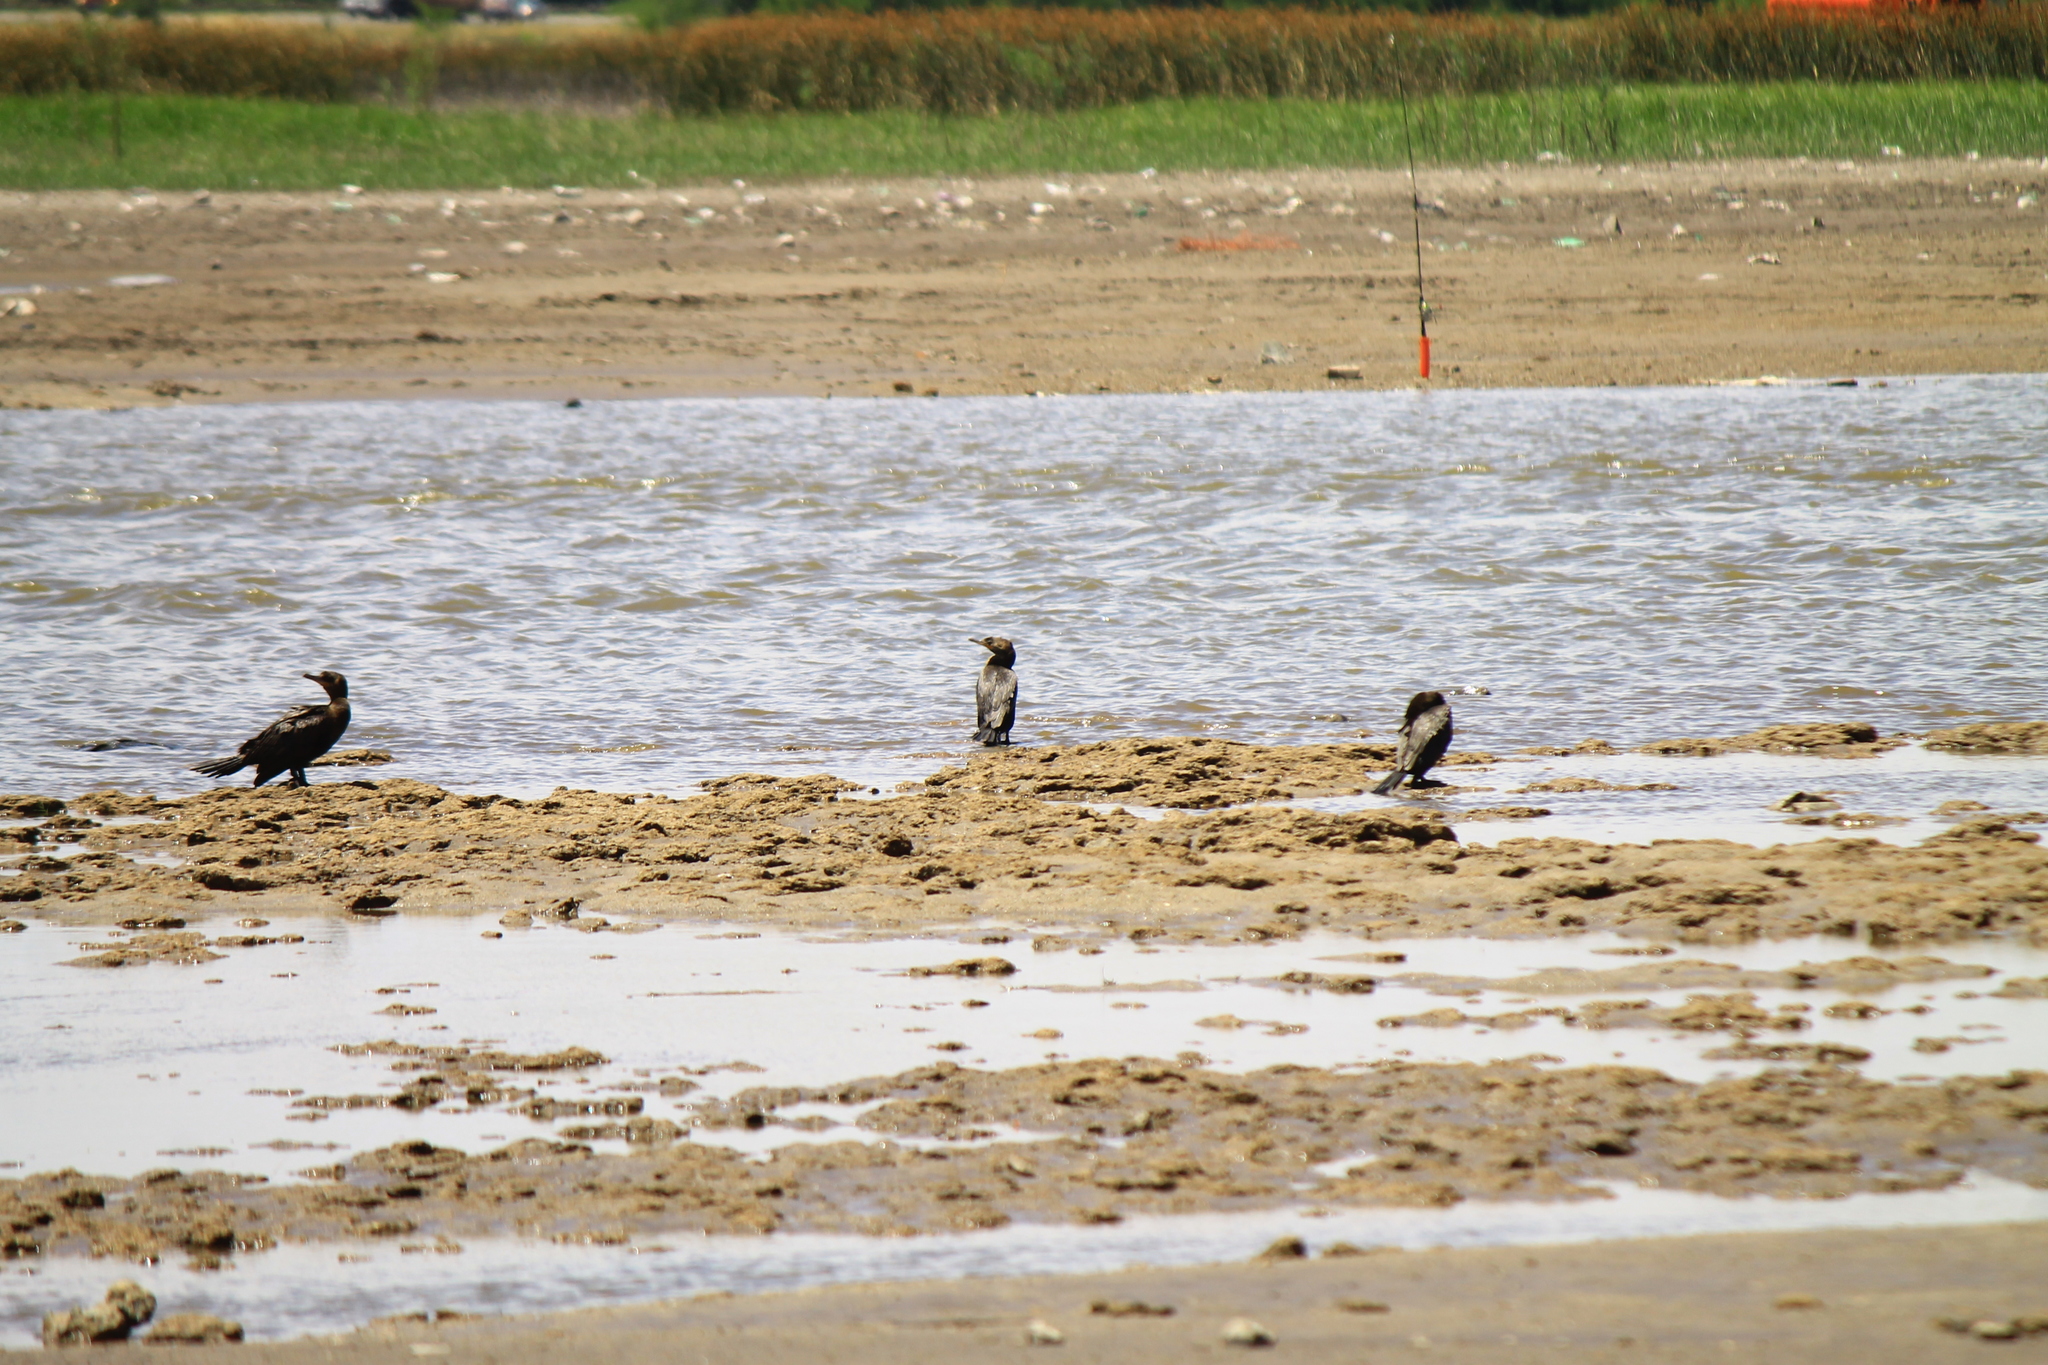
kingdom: Animalia
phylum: Chordata
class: Aves
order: Suliformes
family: Phalacrocoracidae
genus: Phalacrocorax
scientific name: Phalacrocorax brasilianus
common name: Neotropic cormorant
